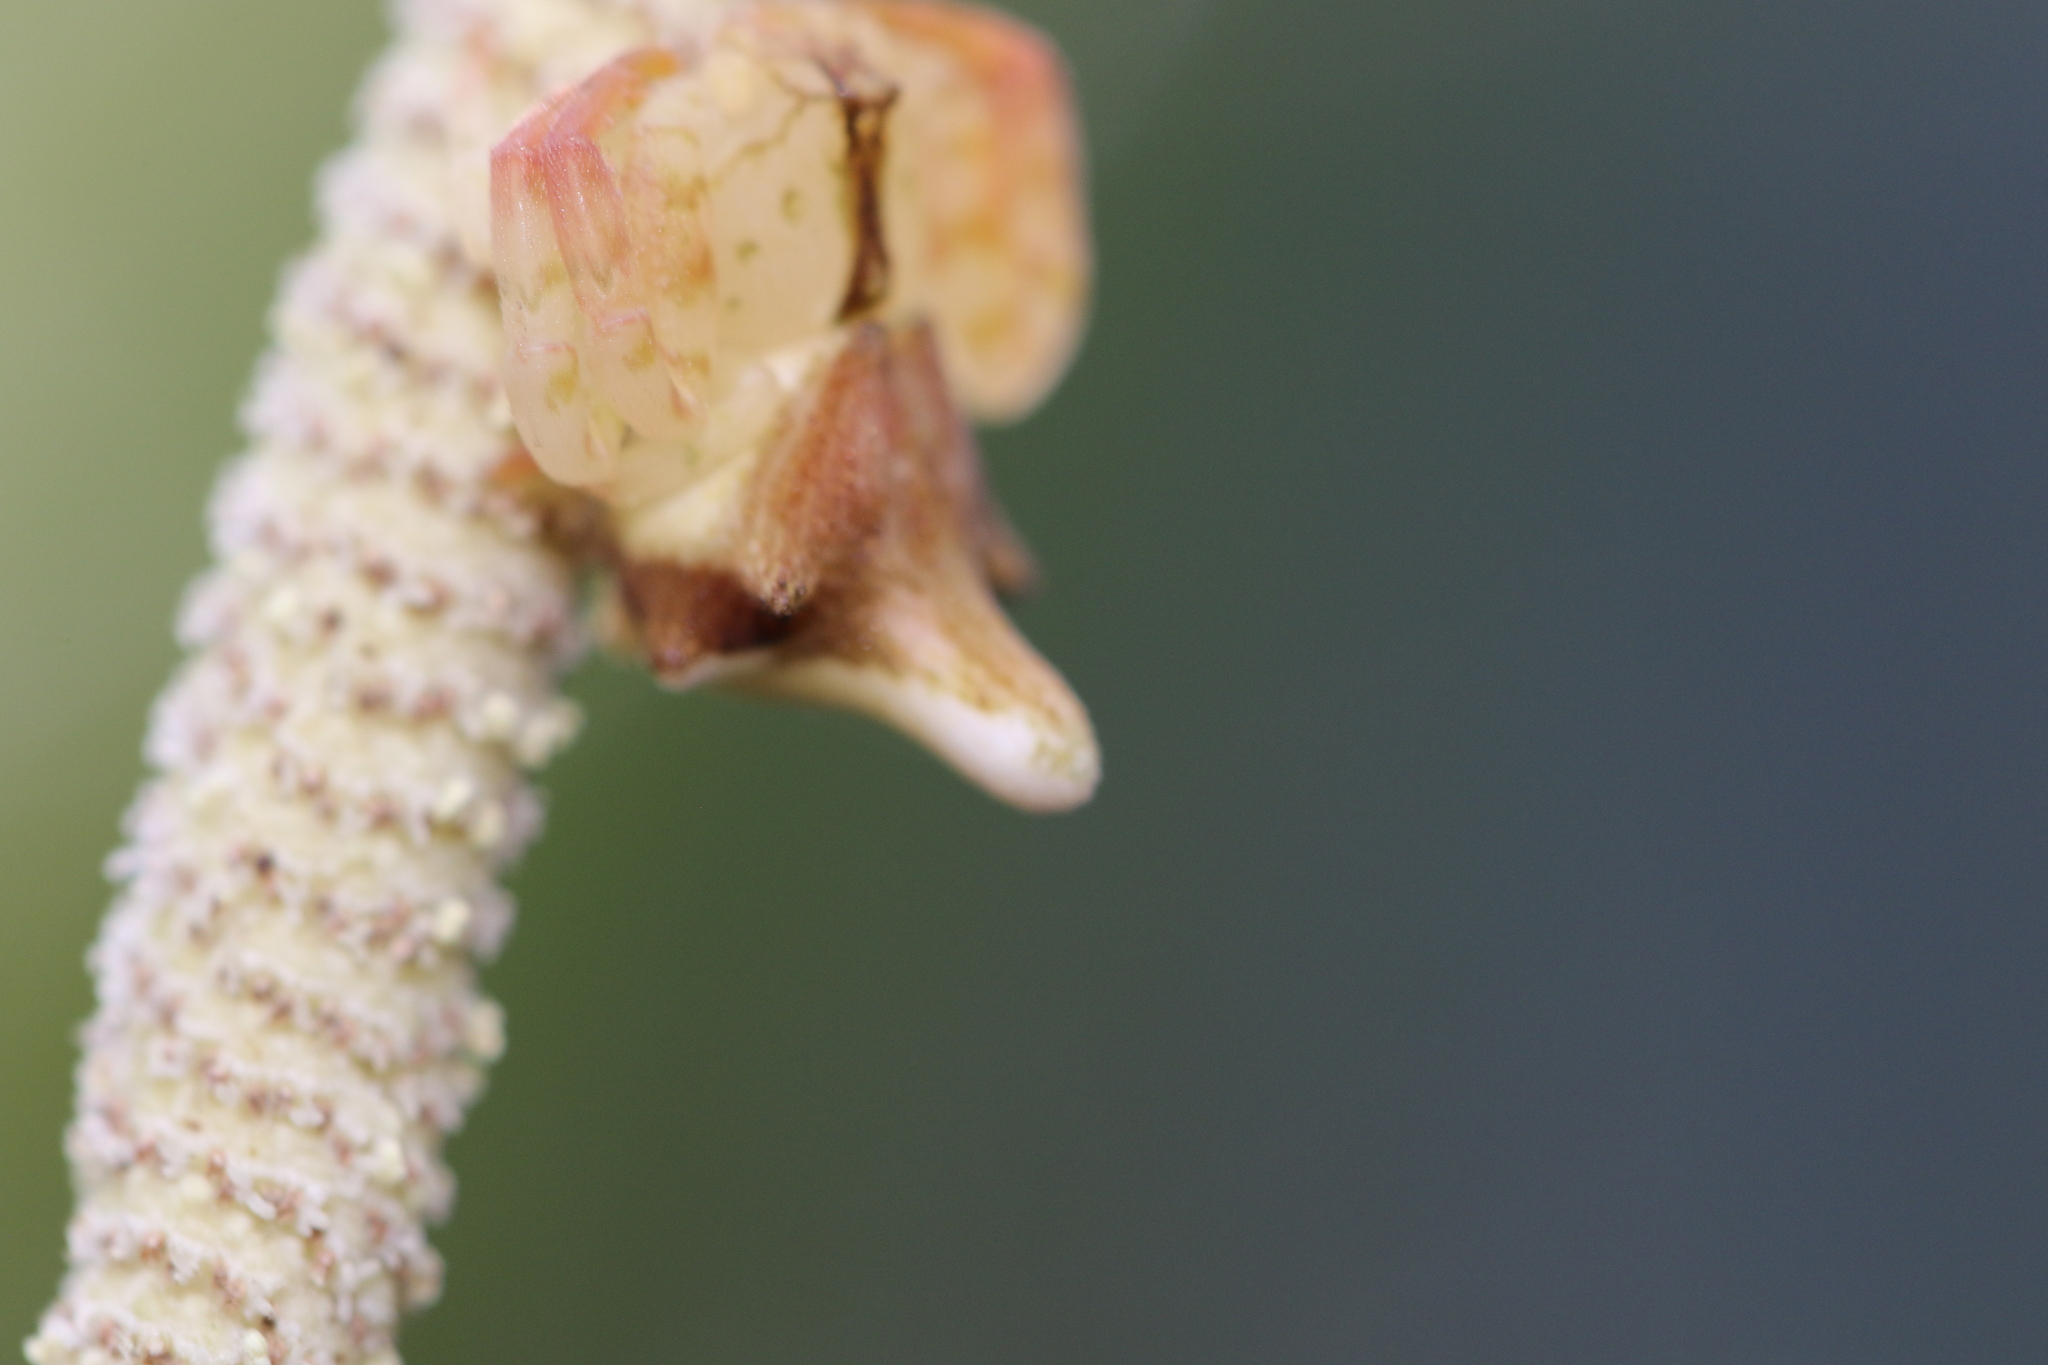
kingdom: Animalia
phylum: Arthropoda
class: Arachnida
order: Araneae
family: Thomisidae
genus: Epicadus
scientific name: Epicadus rubripes
